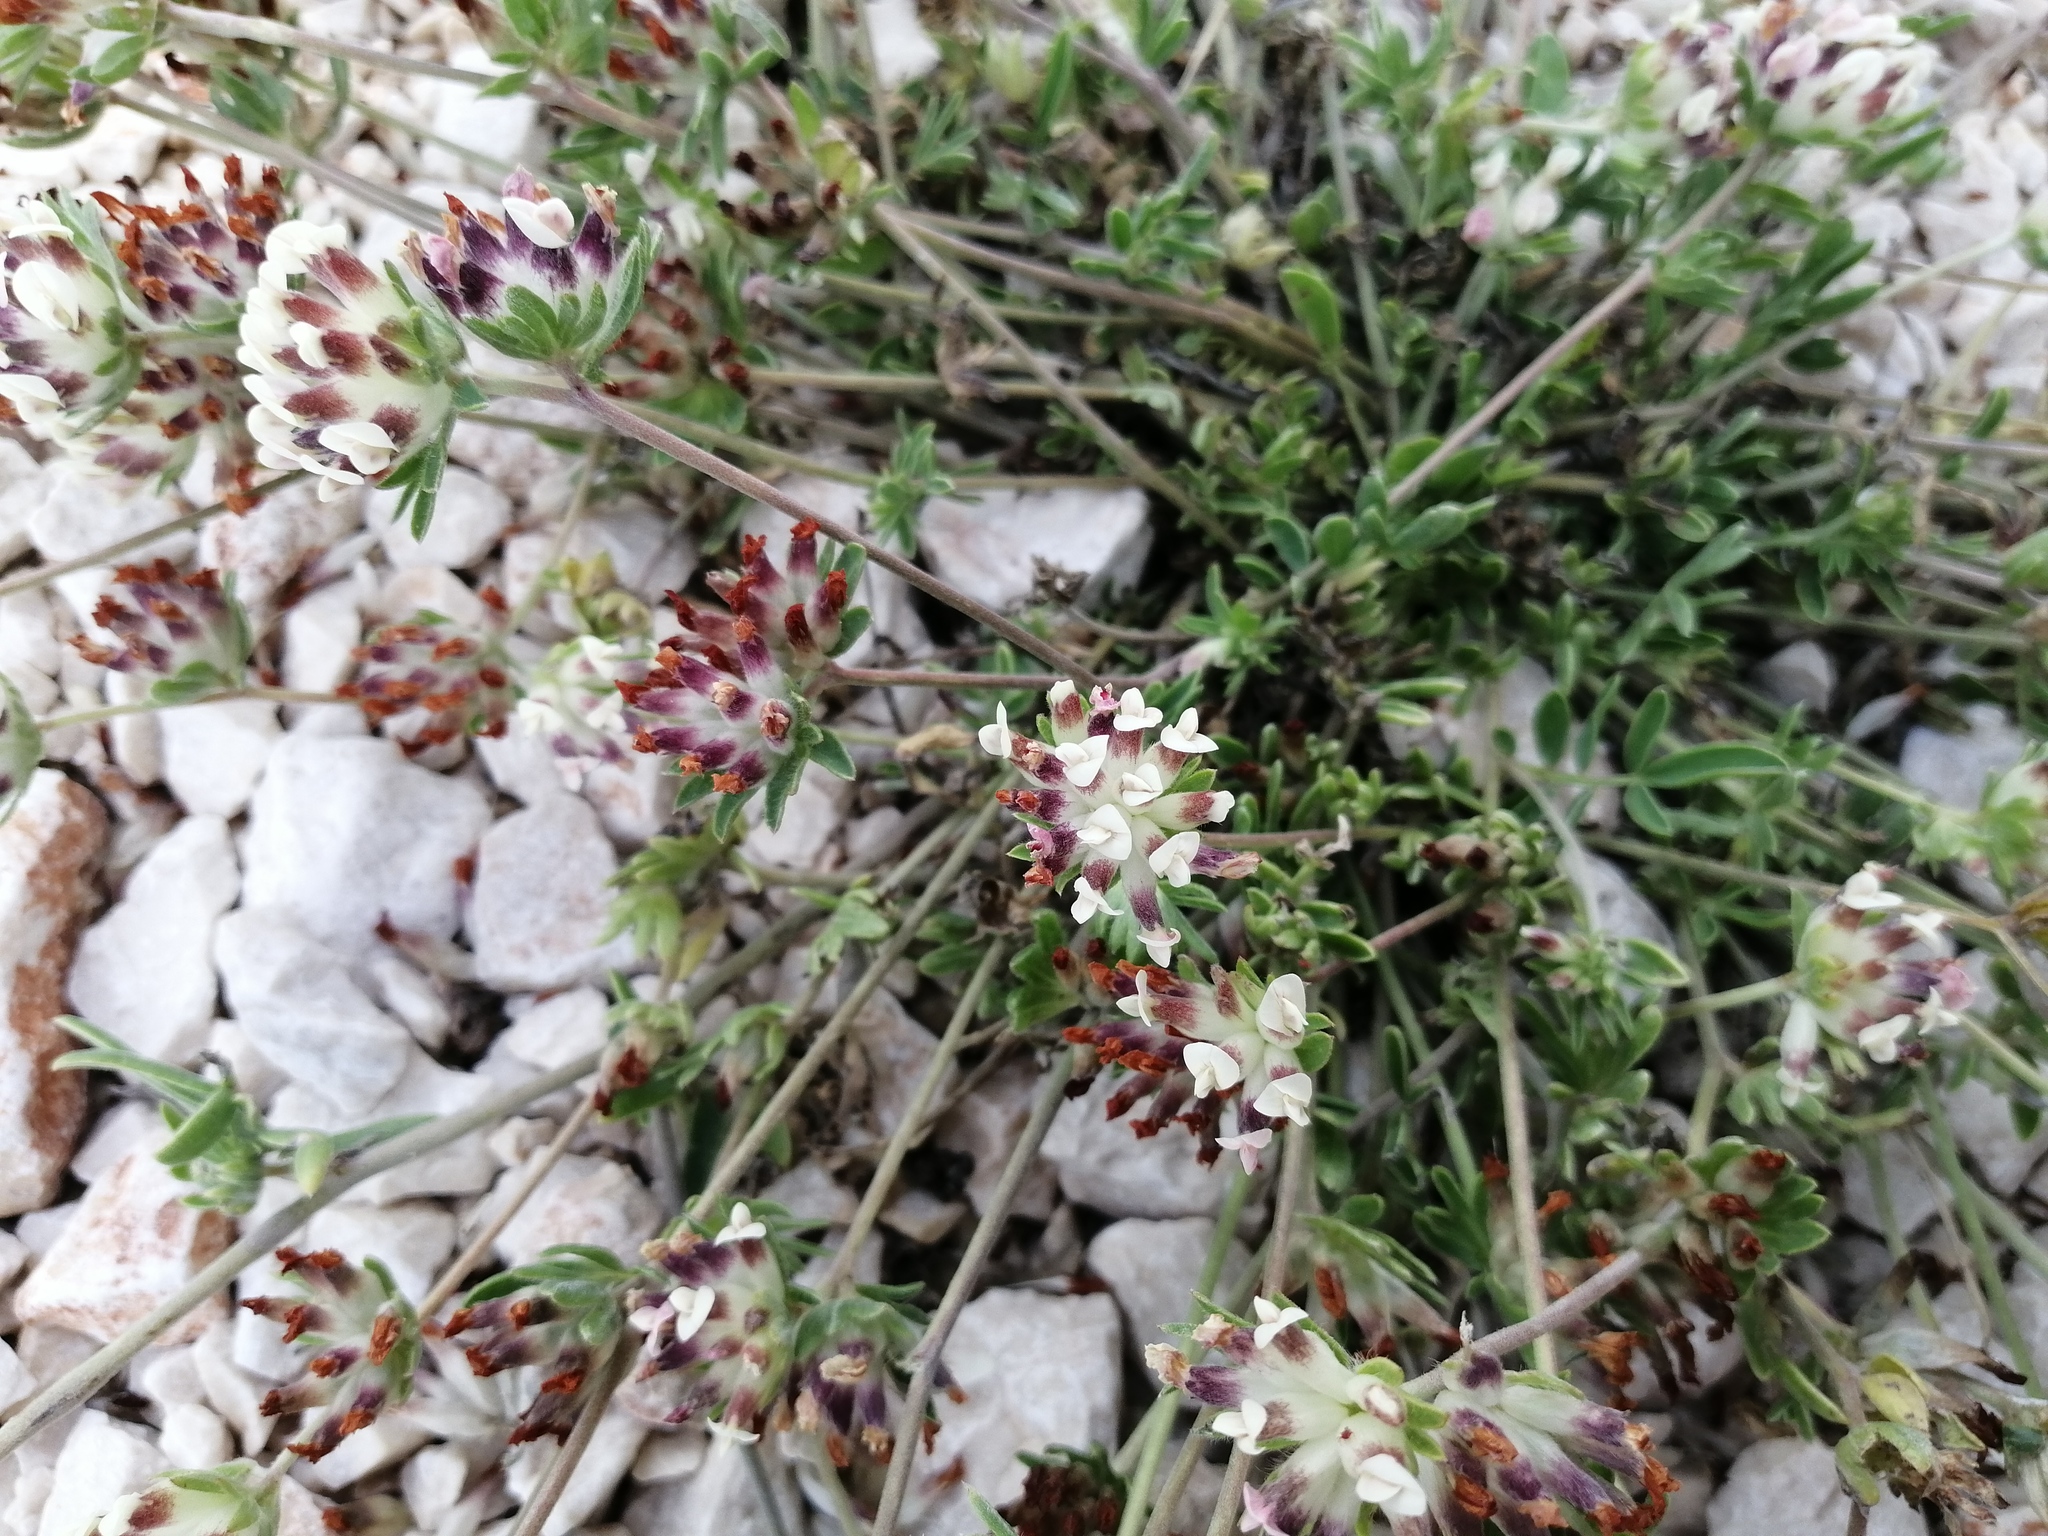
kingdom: Plantae
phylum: Tracheophyta
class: Magnoliopsida
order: Fabales
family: Fabaceae
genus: Anthyllis
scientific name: Anthyllis vulneraria
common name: Kidney vetch
